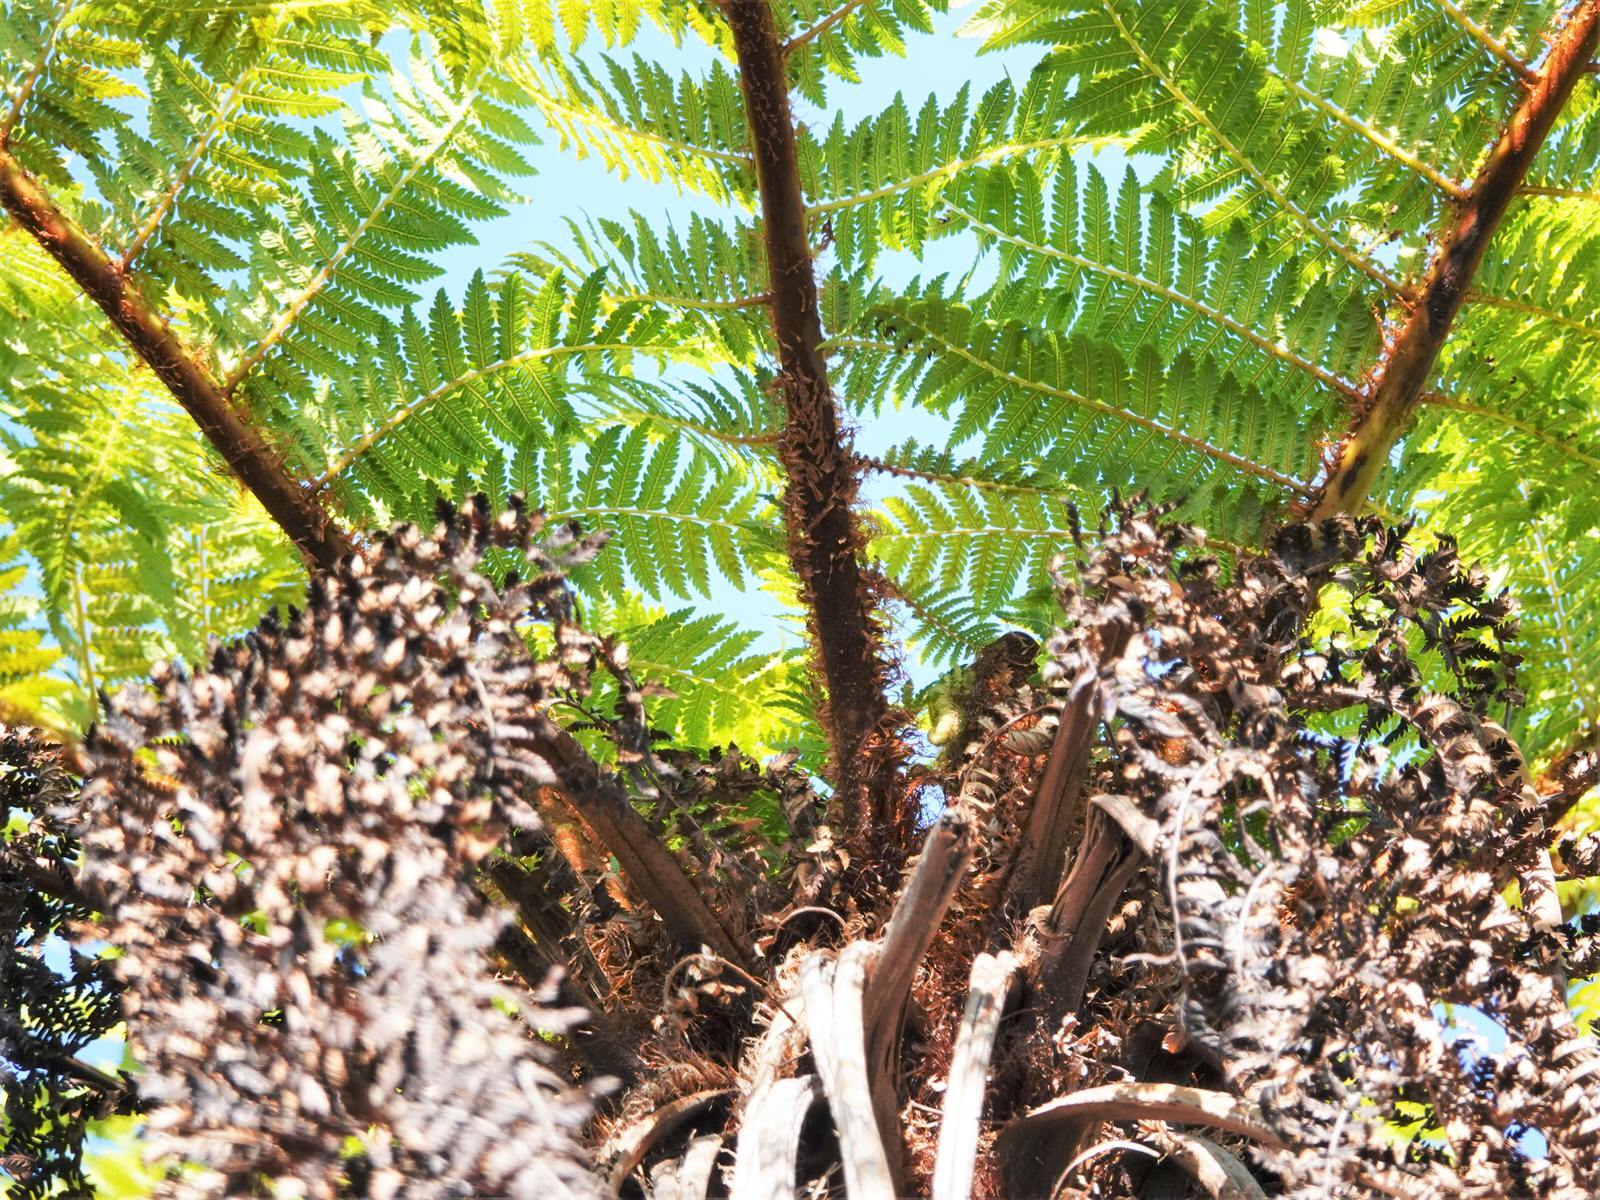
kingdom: Plantae
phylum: Tracheophyta
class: Polypodiopsida
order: Cyatheales
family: Cyatheaceae
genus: Alsophila
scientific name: Alsophila smithii
